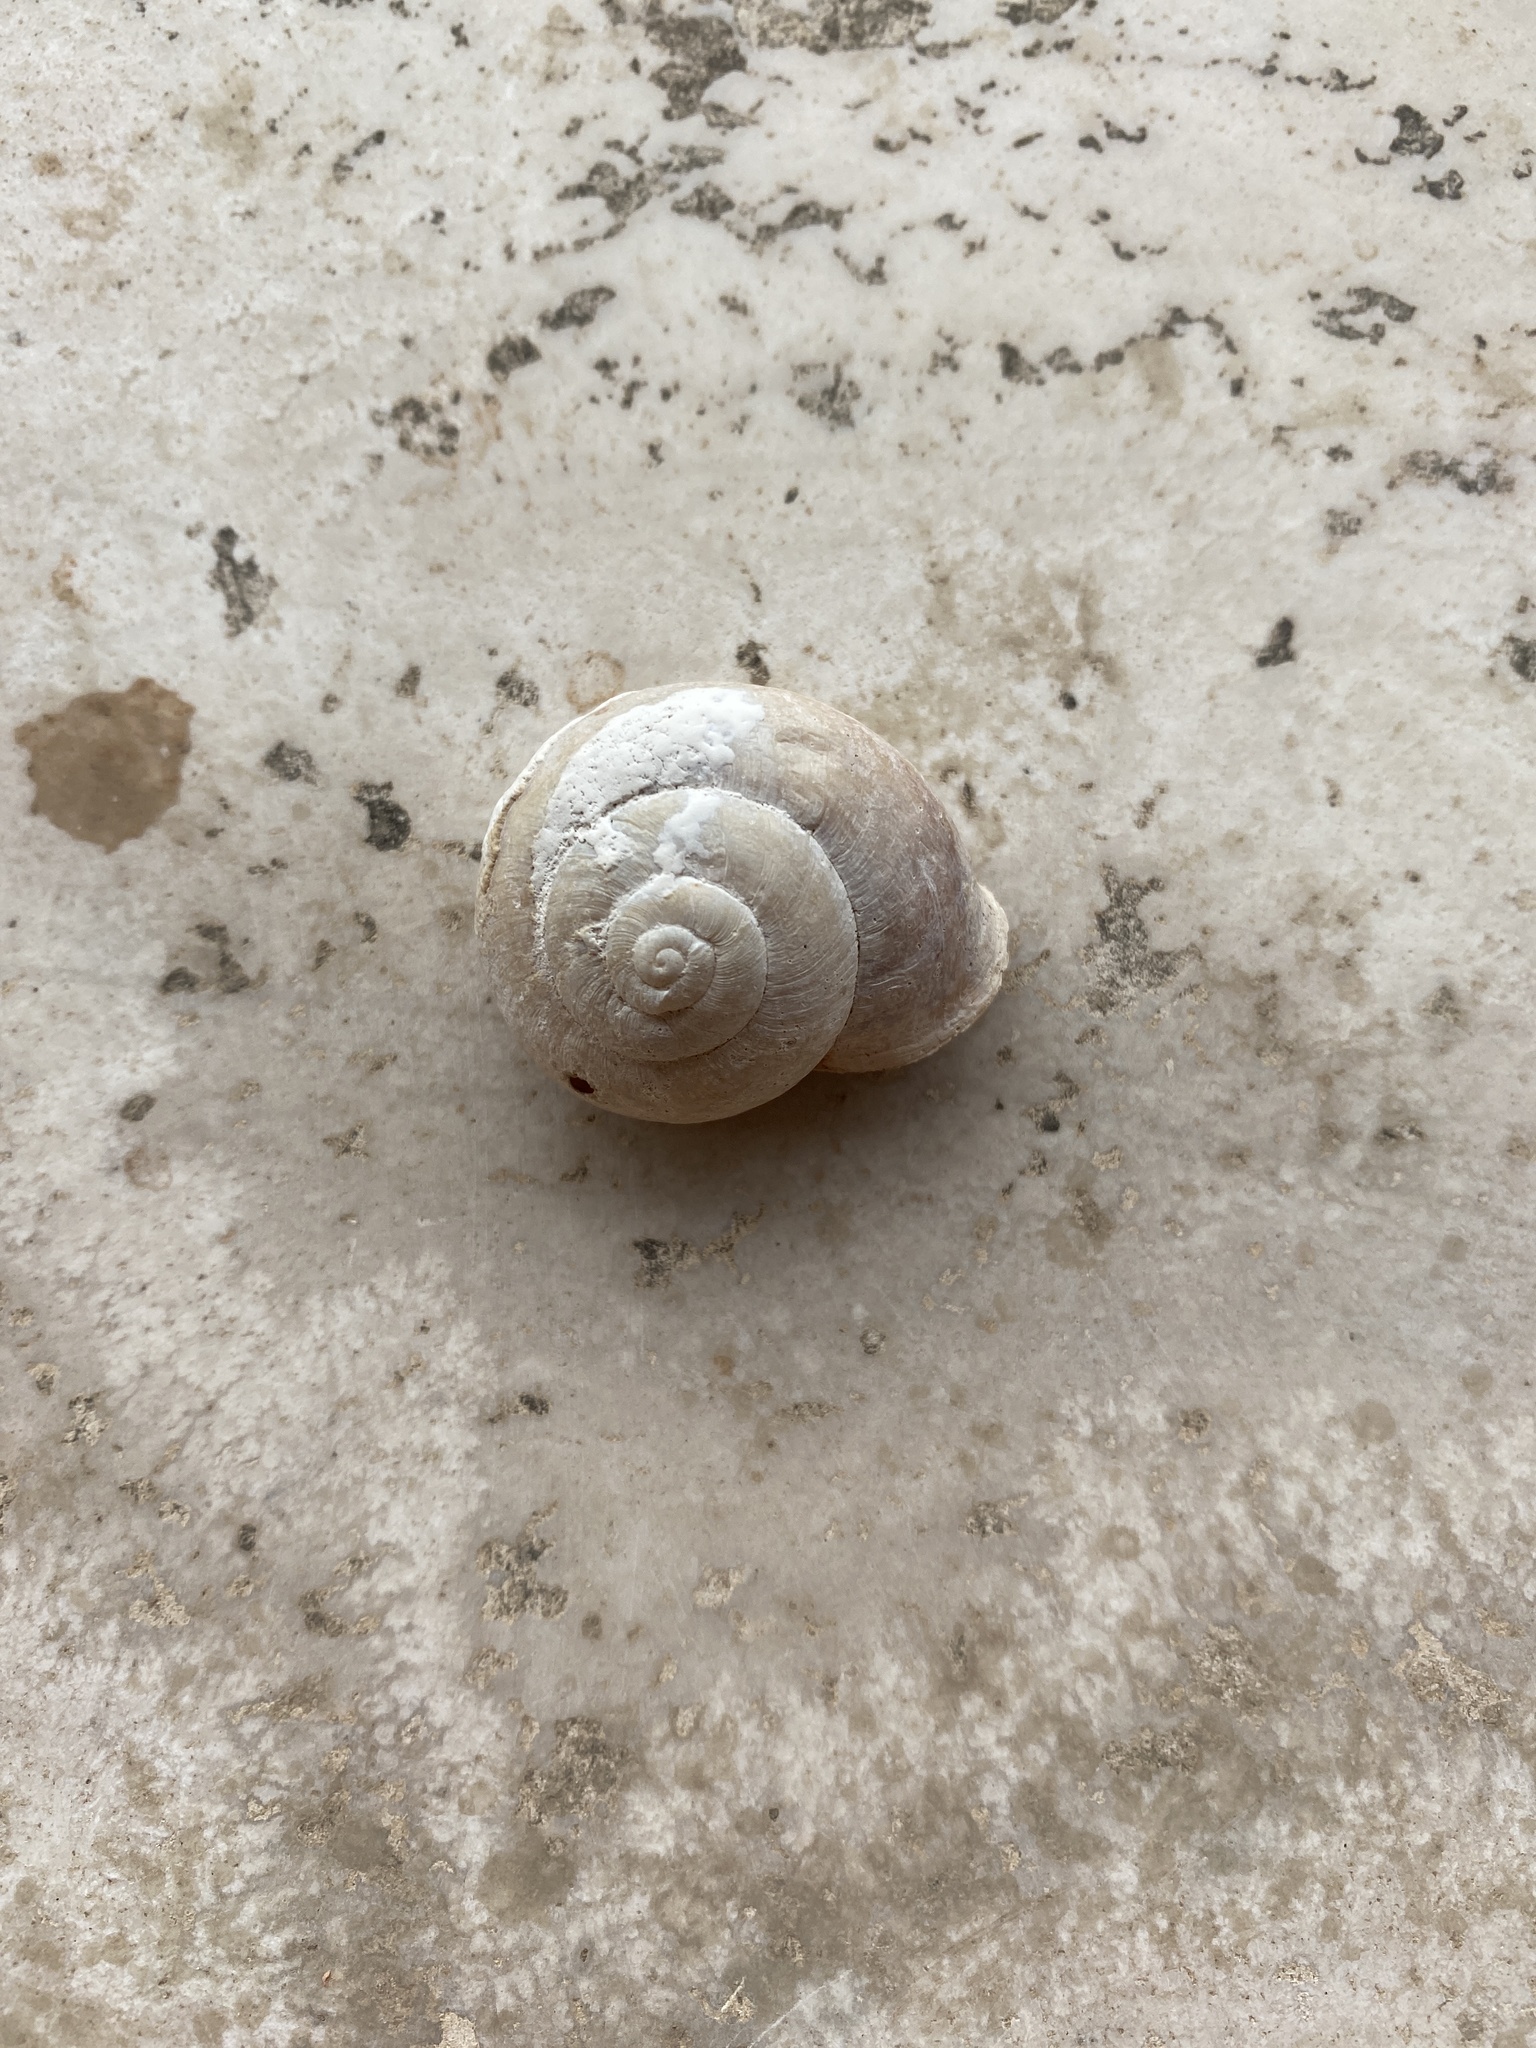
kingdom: Animalia
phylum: Mollusca
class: Gastropoda
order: Stylommatophora
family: Helicidae
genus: Eobania
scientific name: Eobania vermiculata
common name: Chocolateband snail
